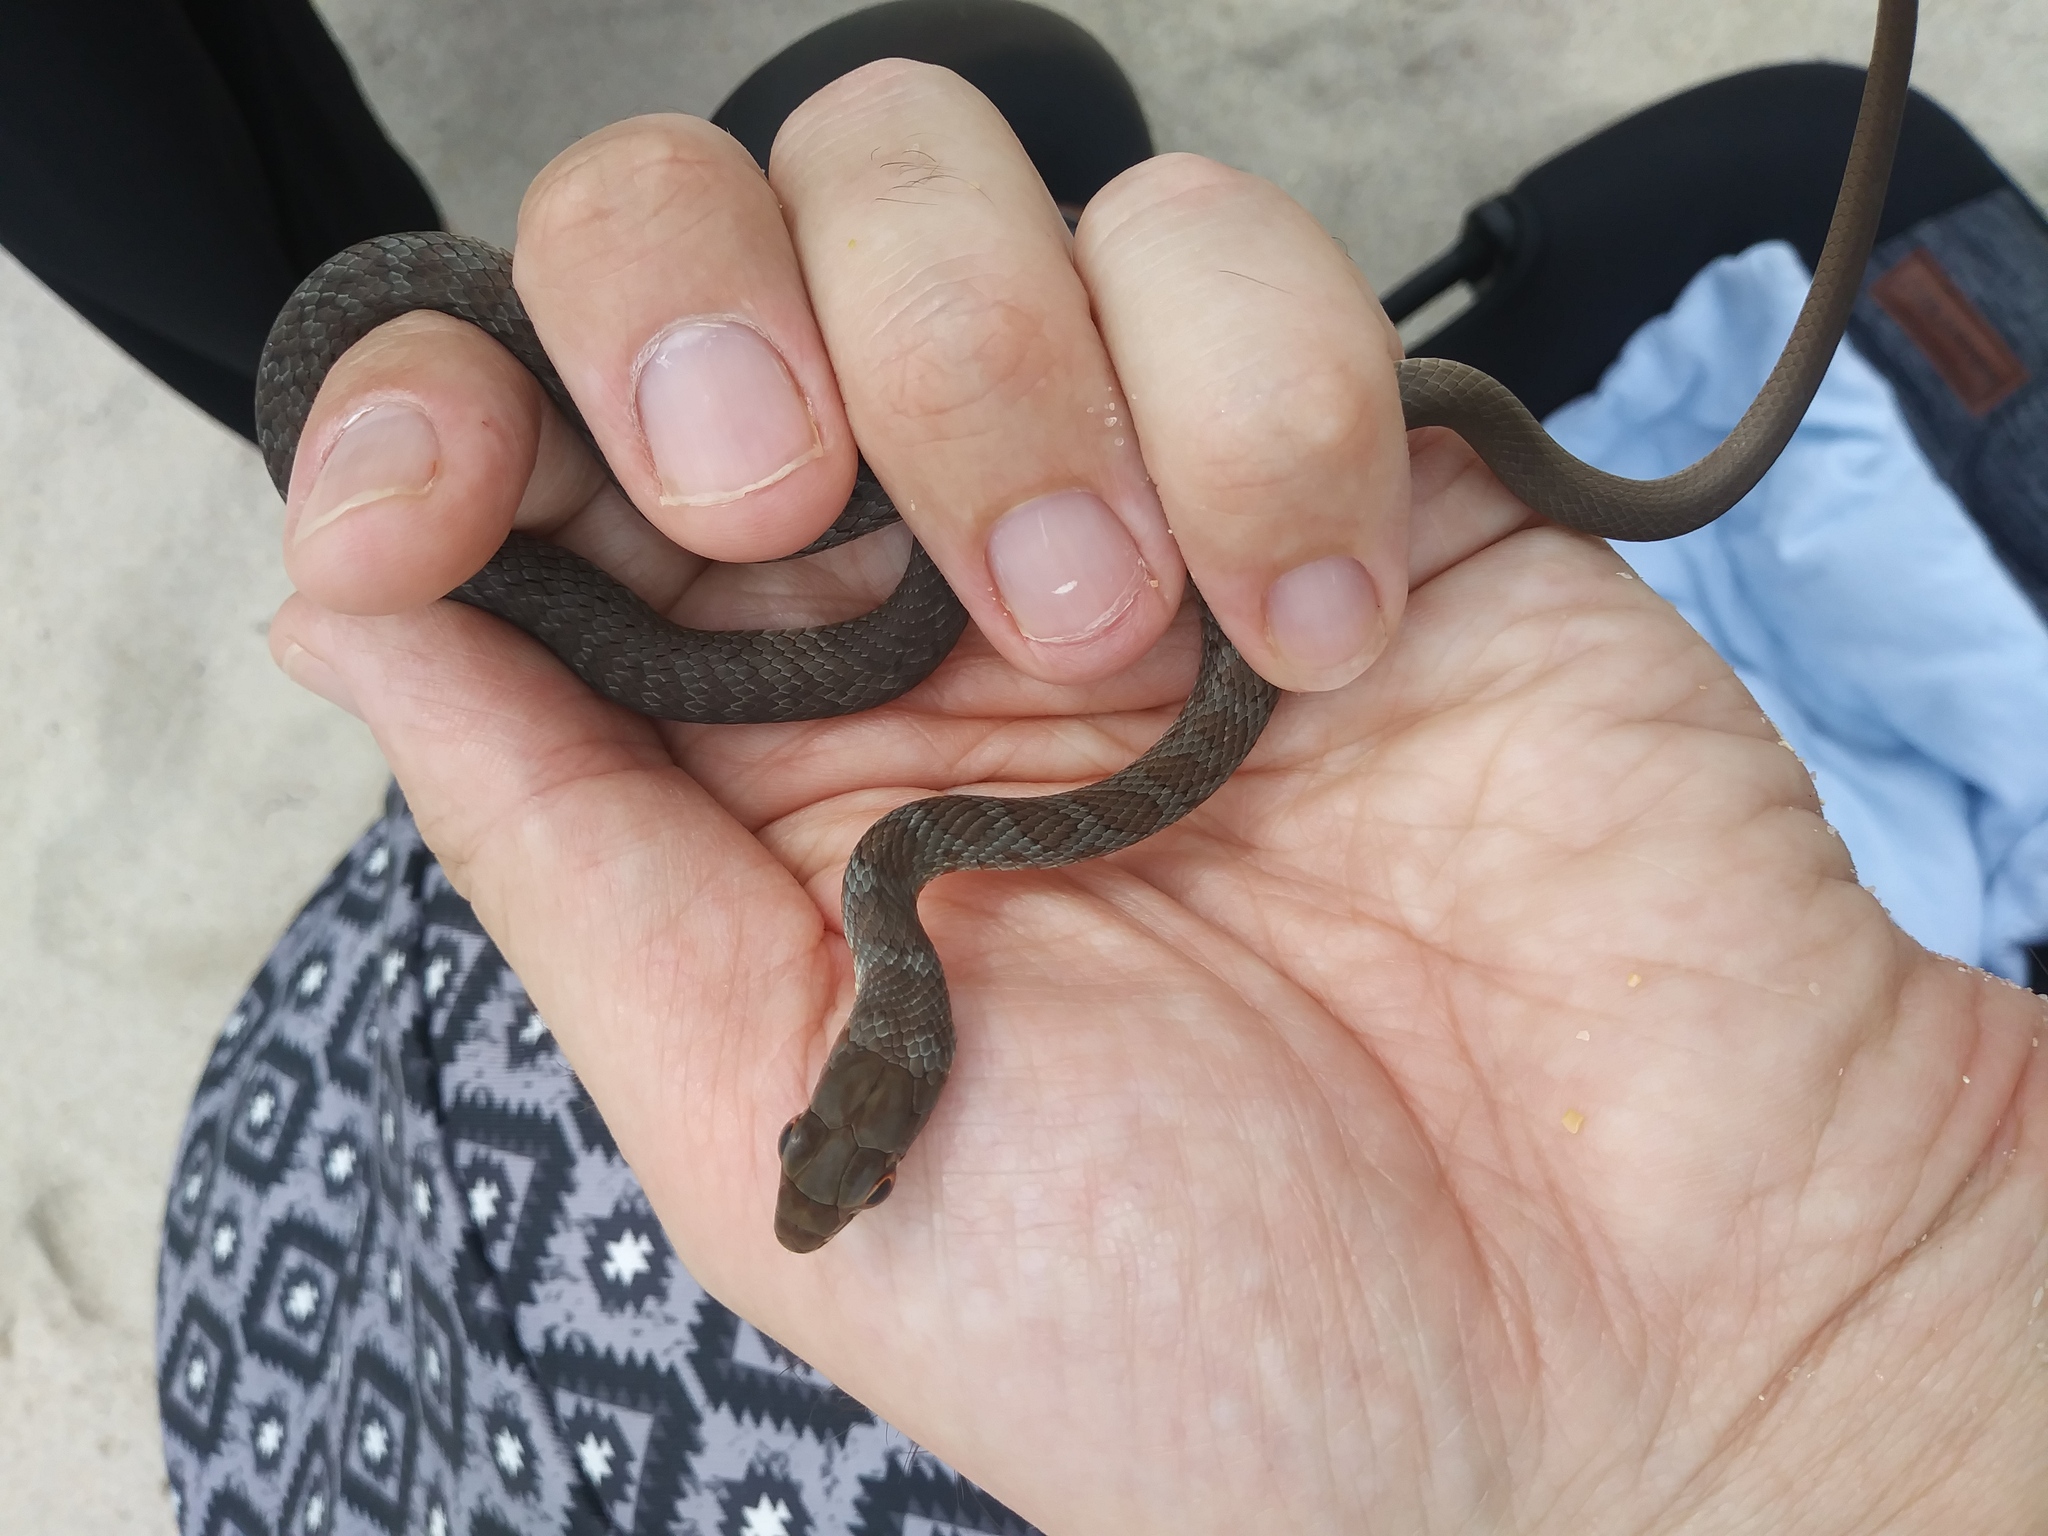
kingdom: Animalia
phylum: Chordata
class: Squamata
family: Colubridae
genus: Coluber
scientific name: Coluber constrictor
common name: Eastern racer
